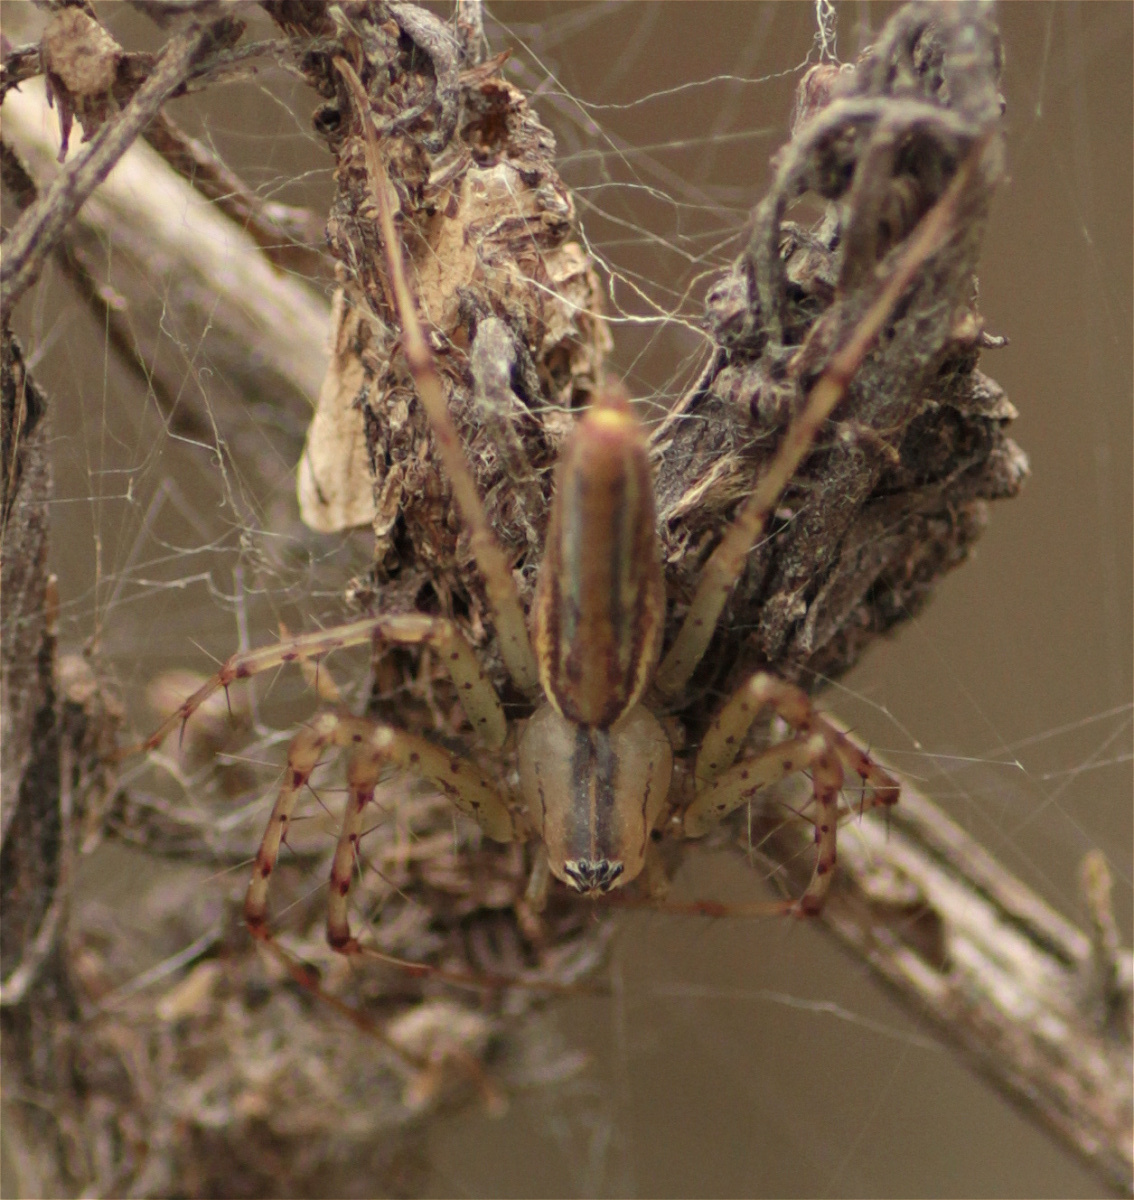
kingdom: Animalia
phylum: Arthropoda
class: Arachnida
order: Araneae
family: Oxyopidae
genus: Peucetia
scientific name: Peucetia rubrolineata
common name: Lynx spiders
